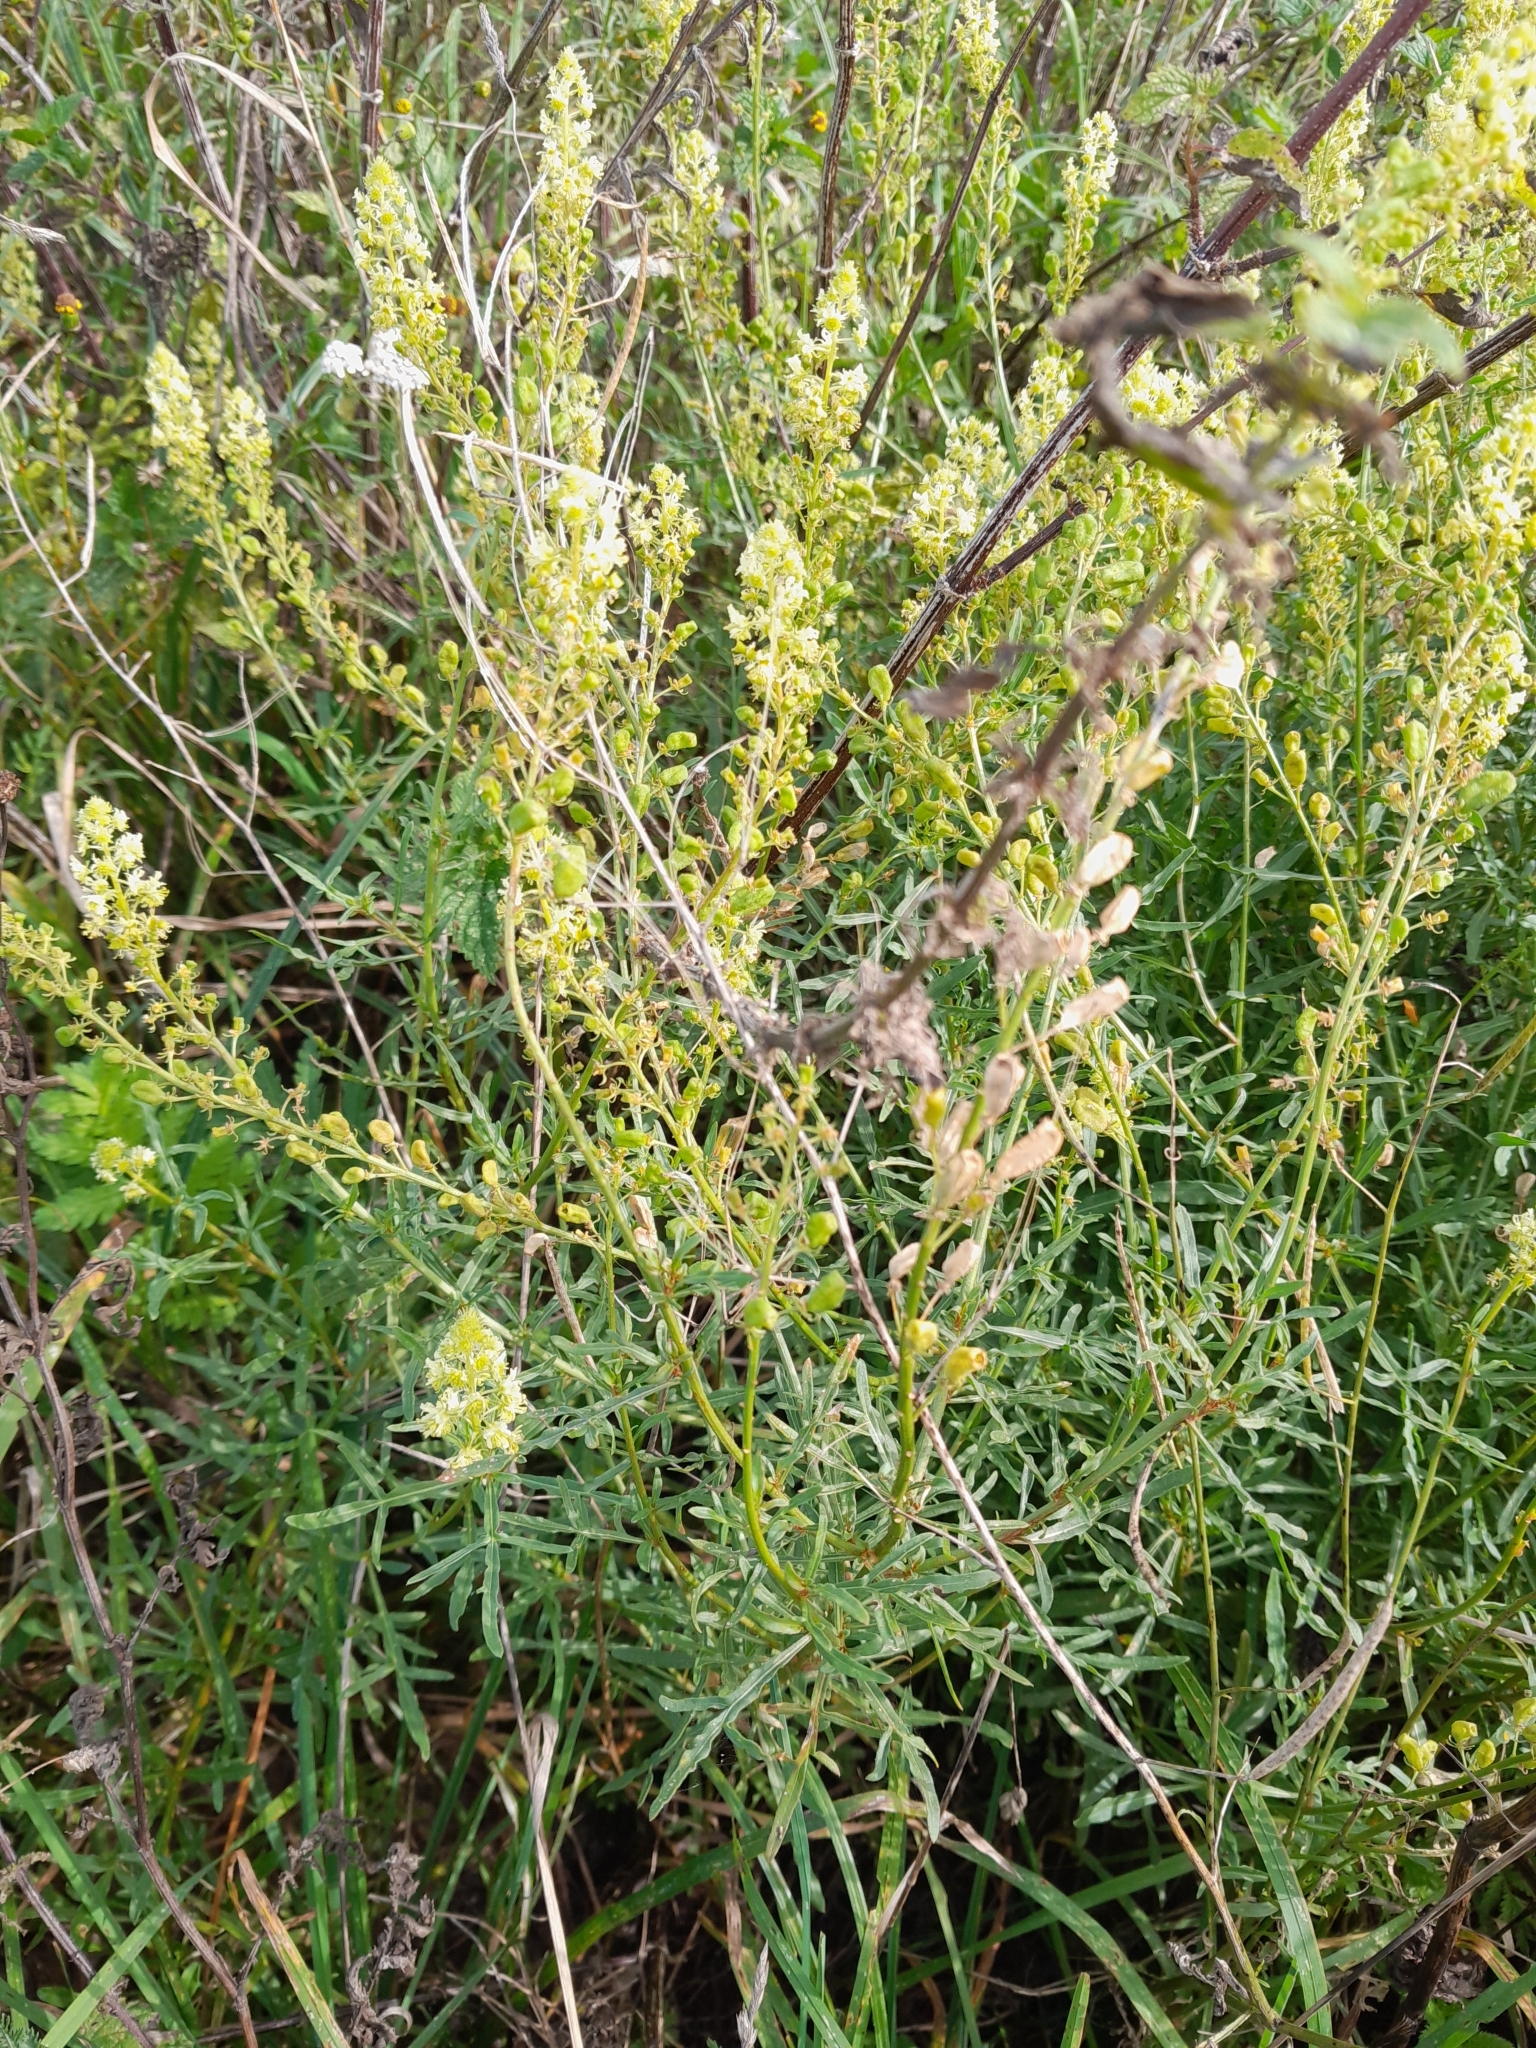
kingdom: Plantae
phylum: Tracheophyta
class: Magnoliopsida
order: Brassicales
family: Resedaceae
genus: Reseda
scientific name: Reseda lutea
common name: Wild mignonette
